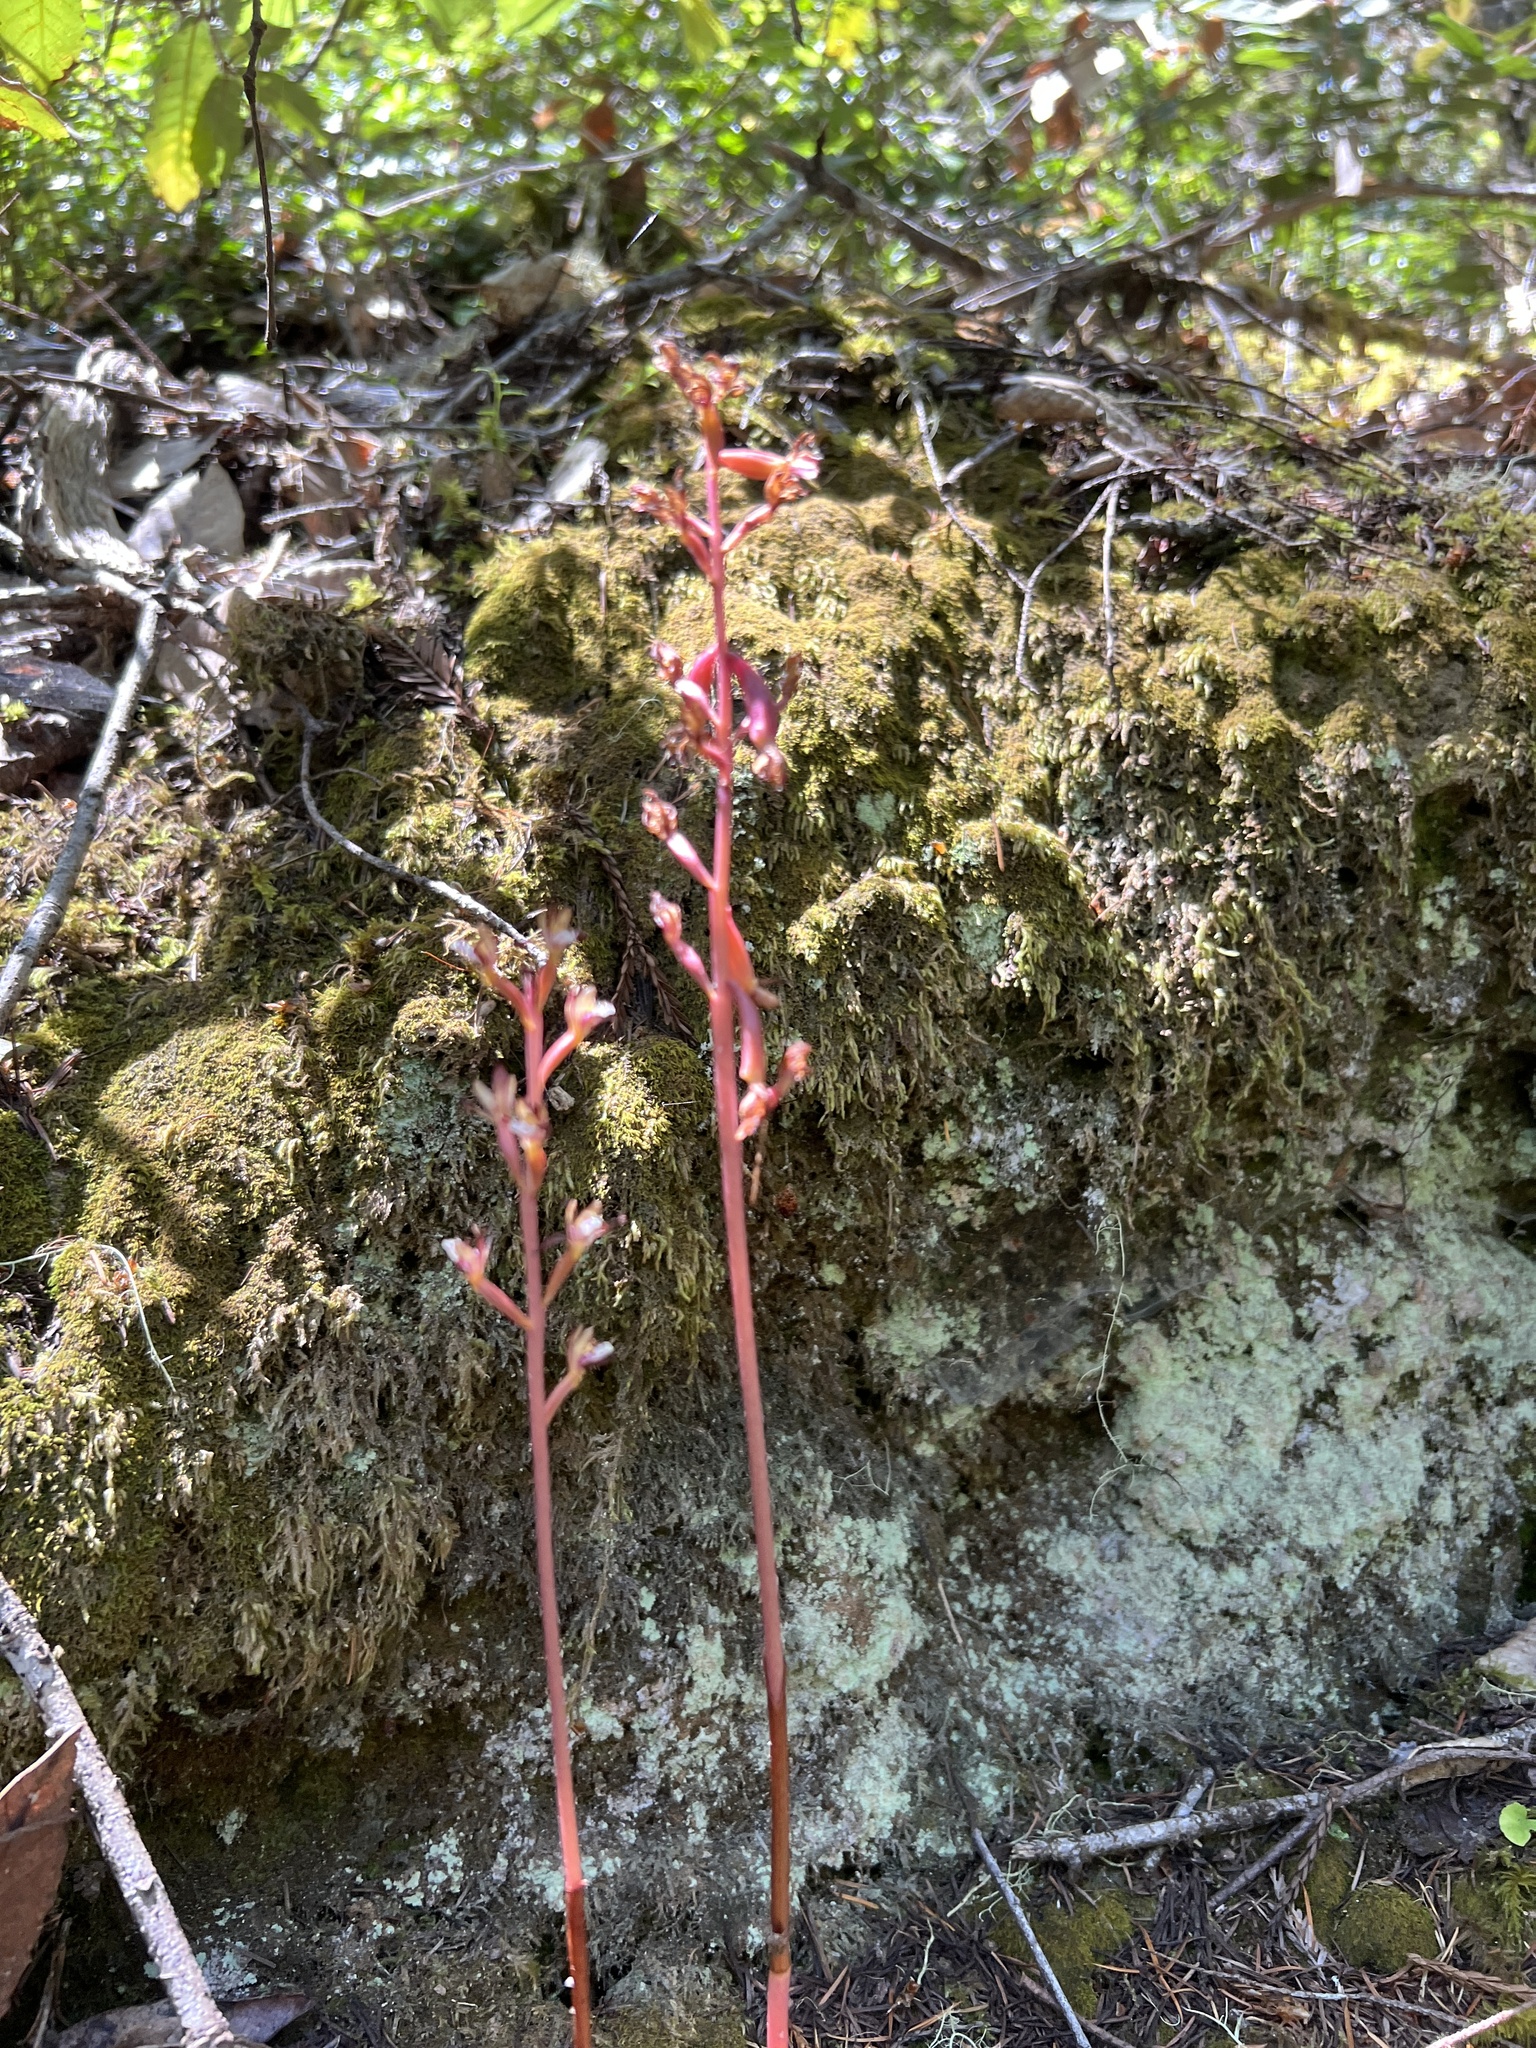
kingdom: Plantae
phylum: Tracheophyta
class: Liliopsida
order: Asparagales
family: Orchidaceae
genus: Corallorhiza
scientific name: Corallorhiza maculata
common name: Spotted coralroot
